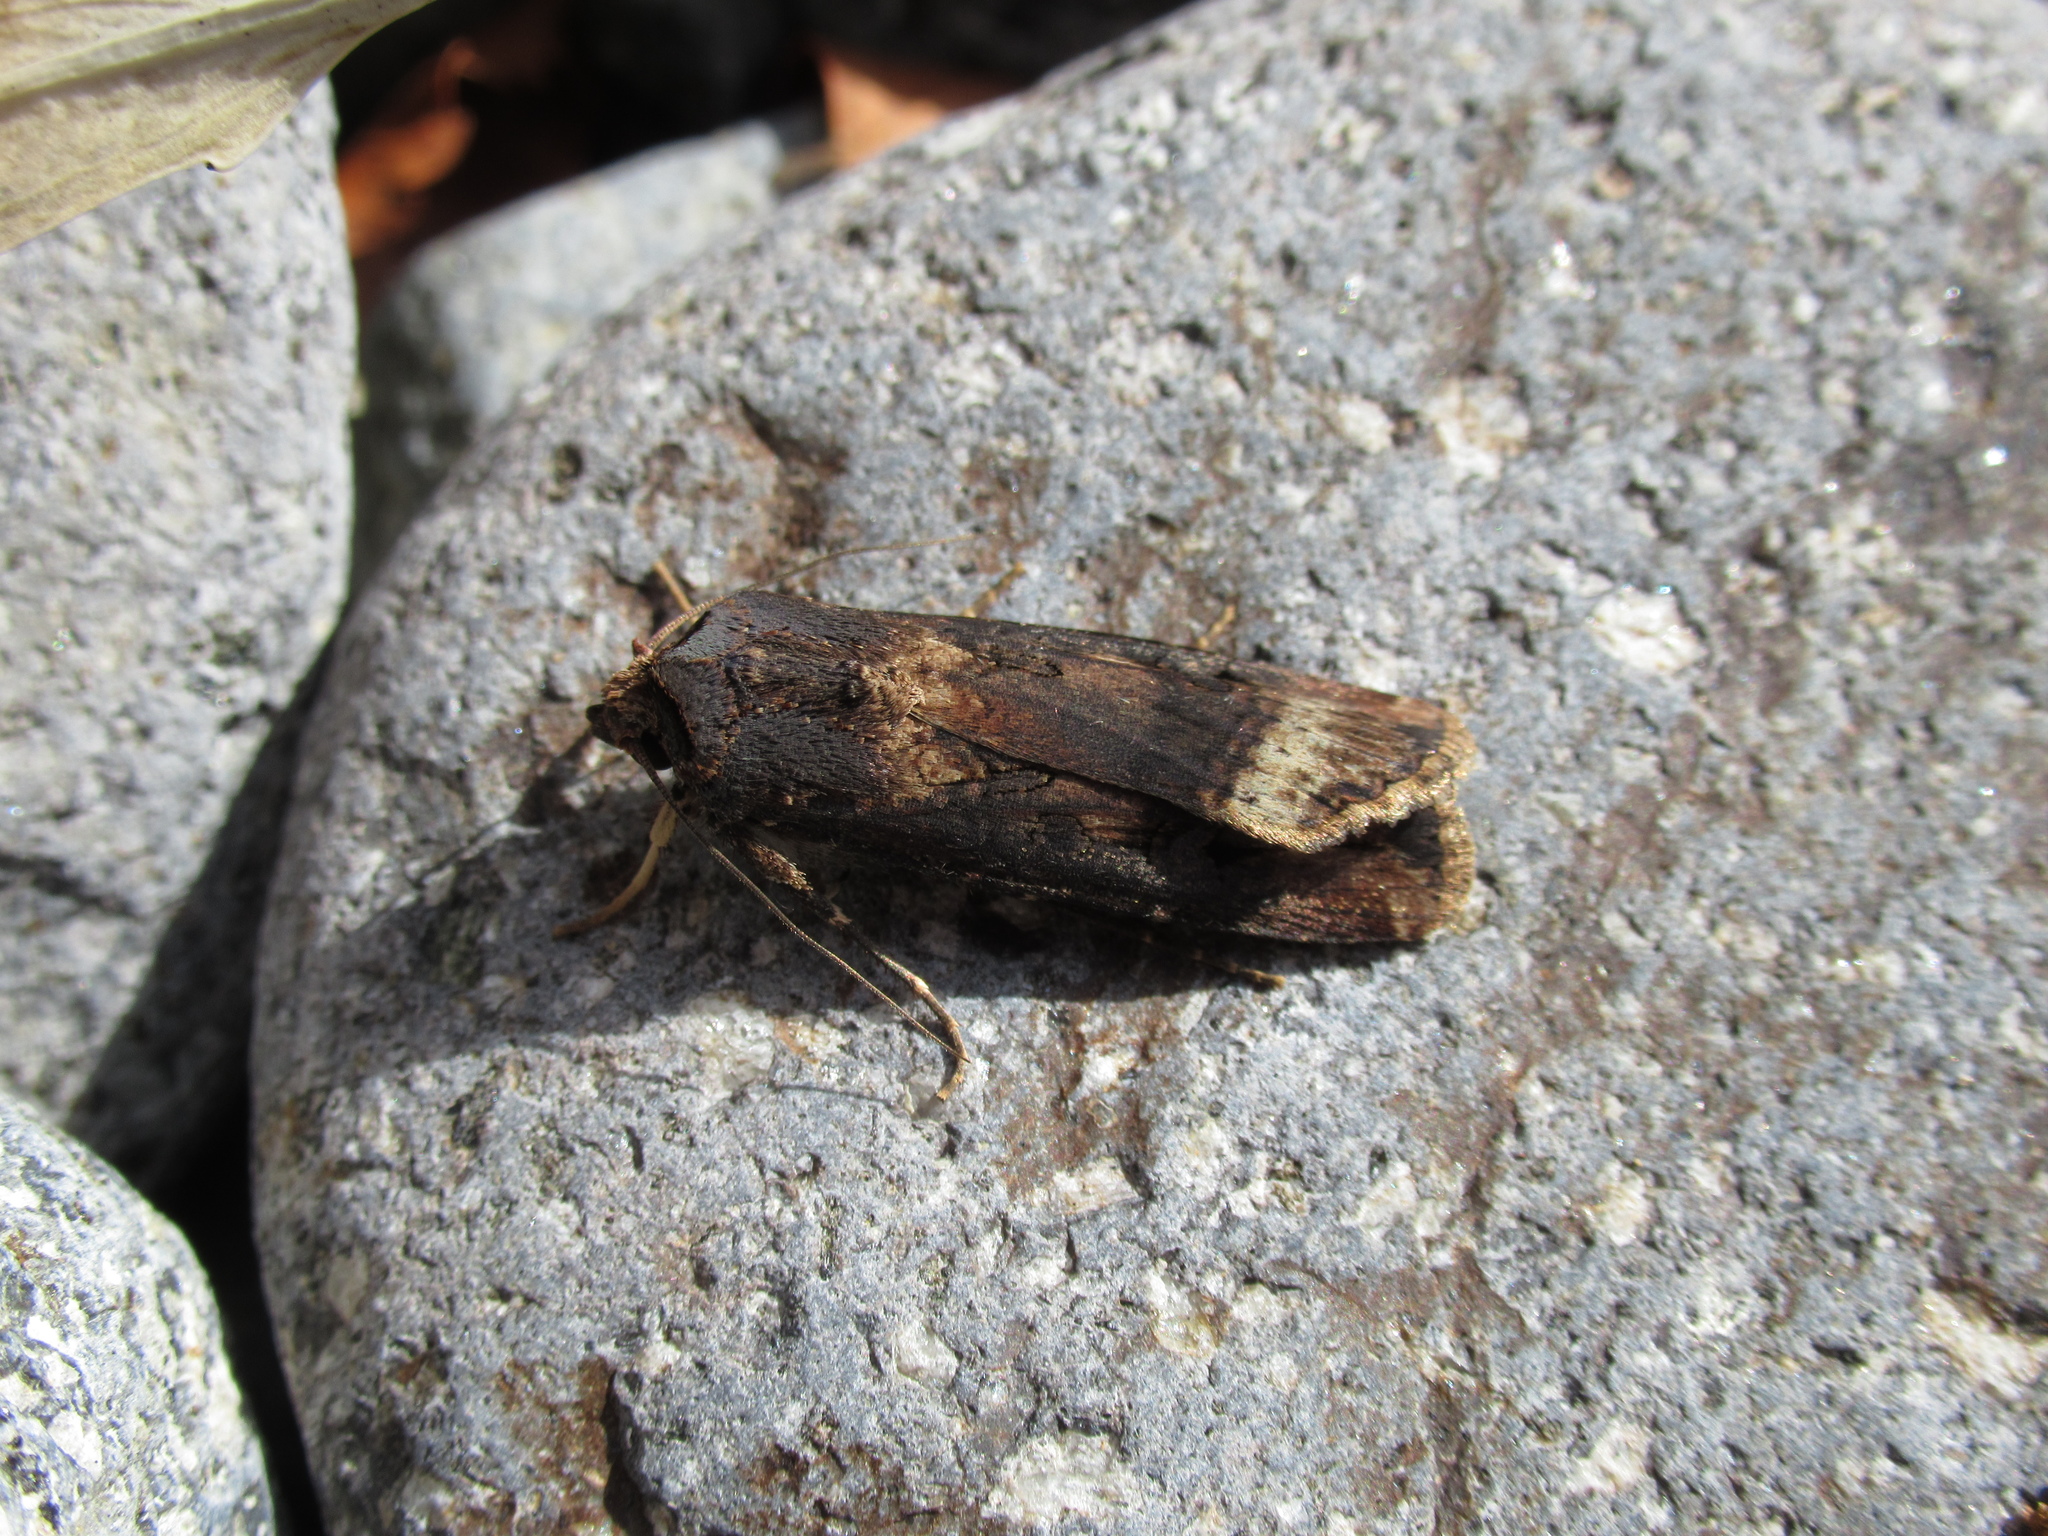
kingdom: Animalia
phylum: Arthropoda
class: Insecta
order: Lepidoptera
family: Noctuidae
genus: Agrotis
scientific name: Agrotis ipsilon
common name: Dark sword-grass
